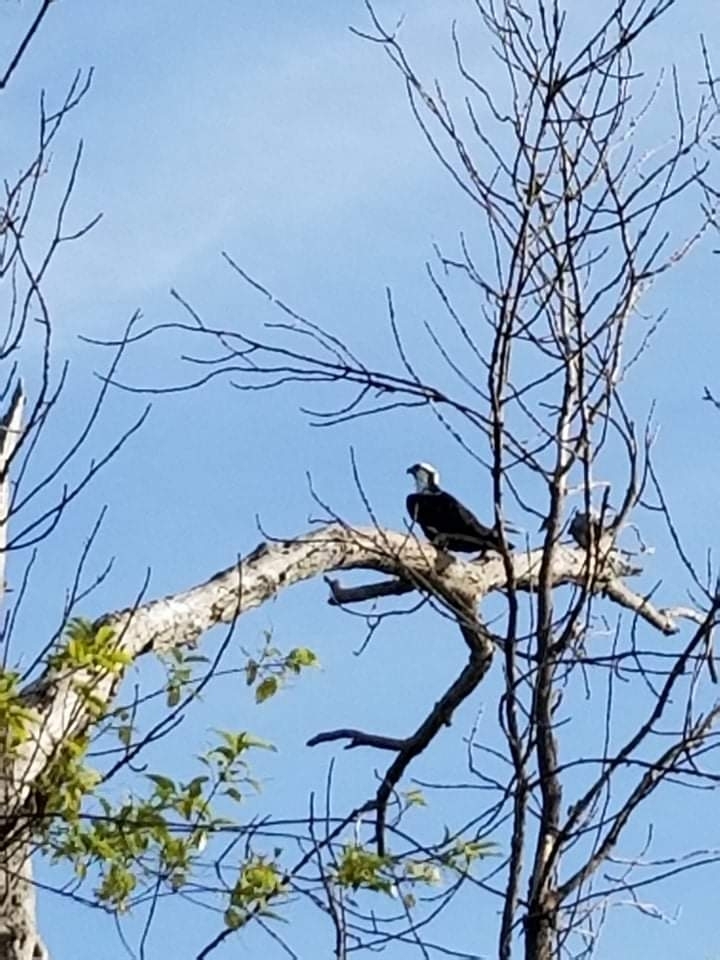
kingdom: Animalia
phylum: Chordata
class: Aves
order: Accipitriformes
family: Pandionidae
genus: Pandion
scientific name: Pandion haliaetus
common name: Osprey
